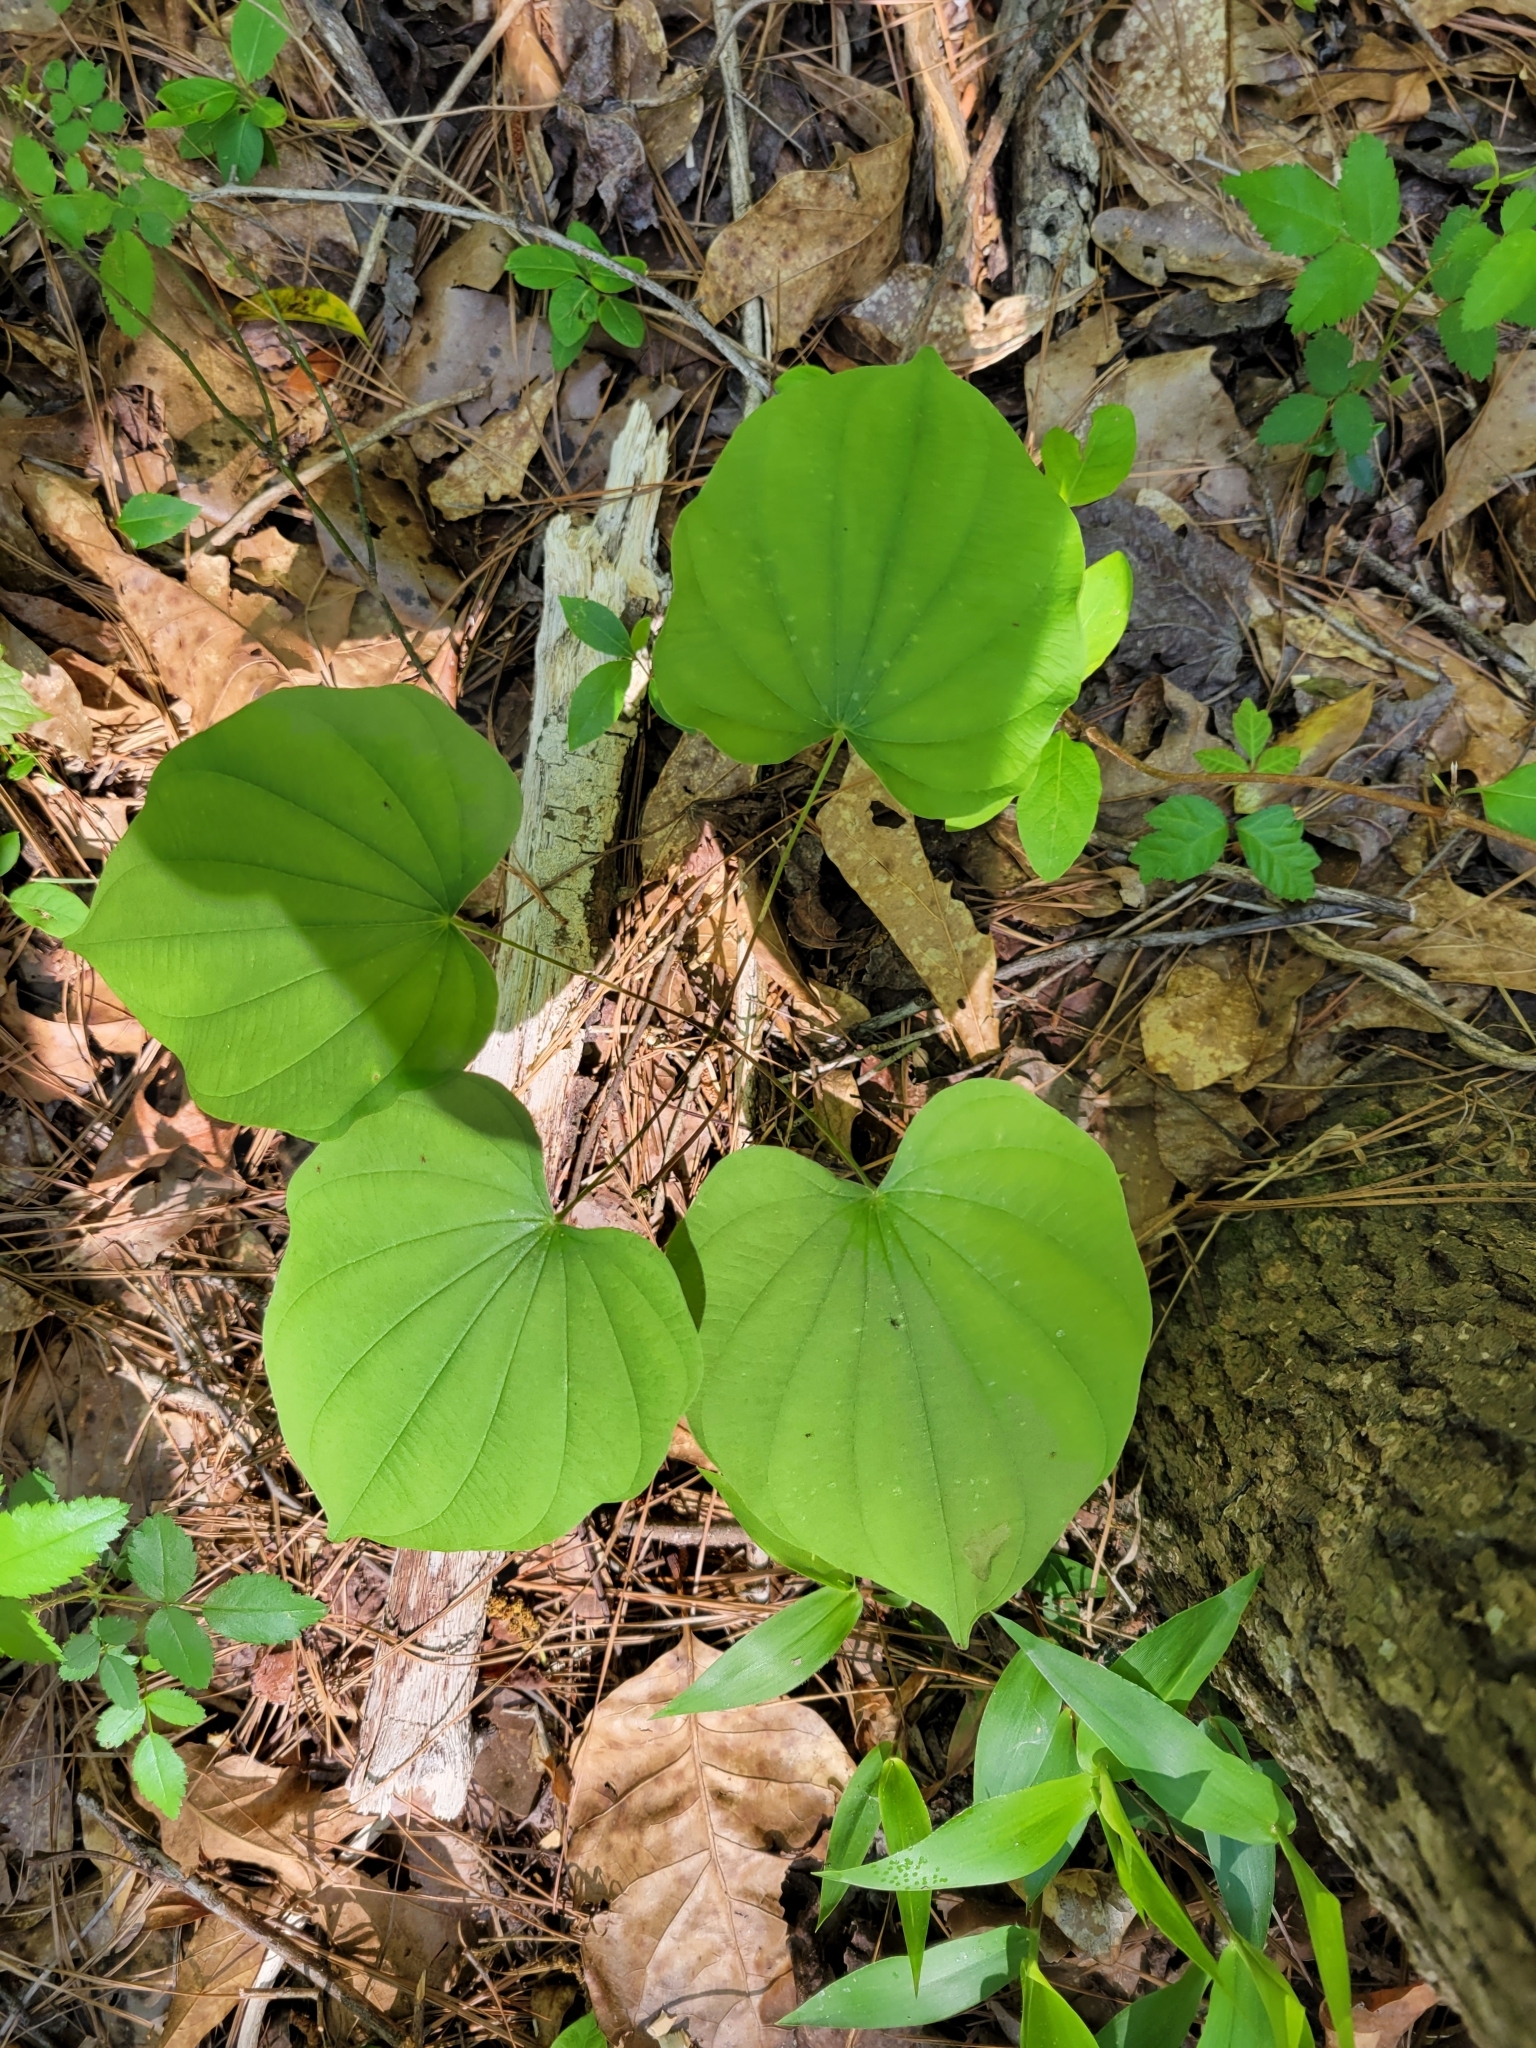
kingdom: Plantae
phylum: Tracheophyta
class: Liliopsida
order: Dioscoreales
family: Dioscoreaceae
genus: Dioscorea
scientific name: Dioscorea villosa
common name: Wild yam
